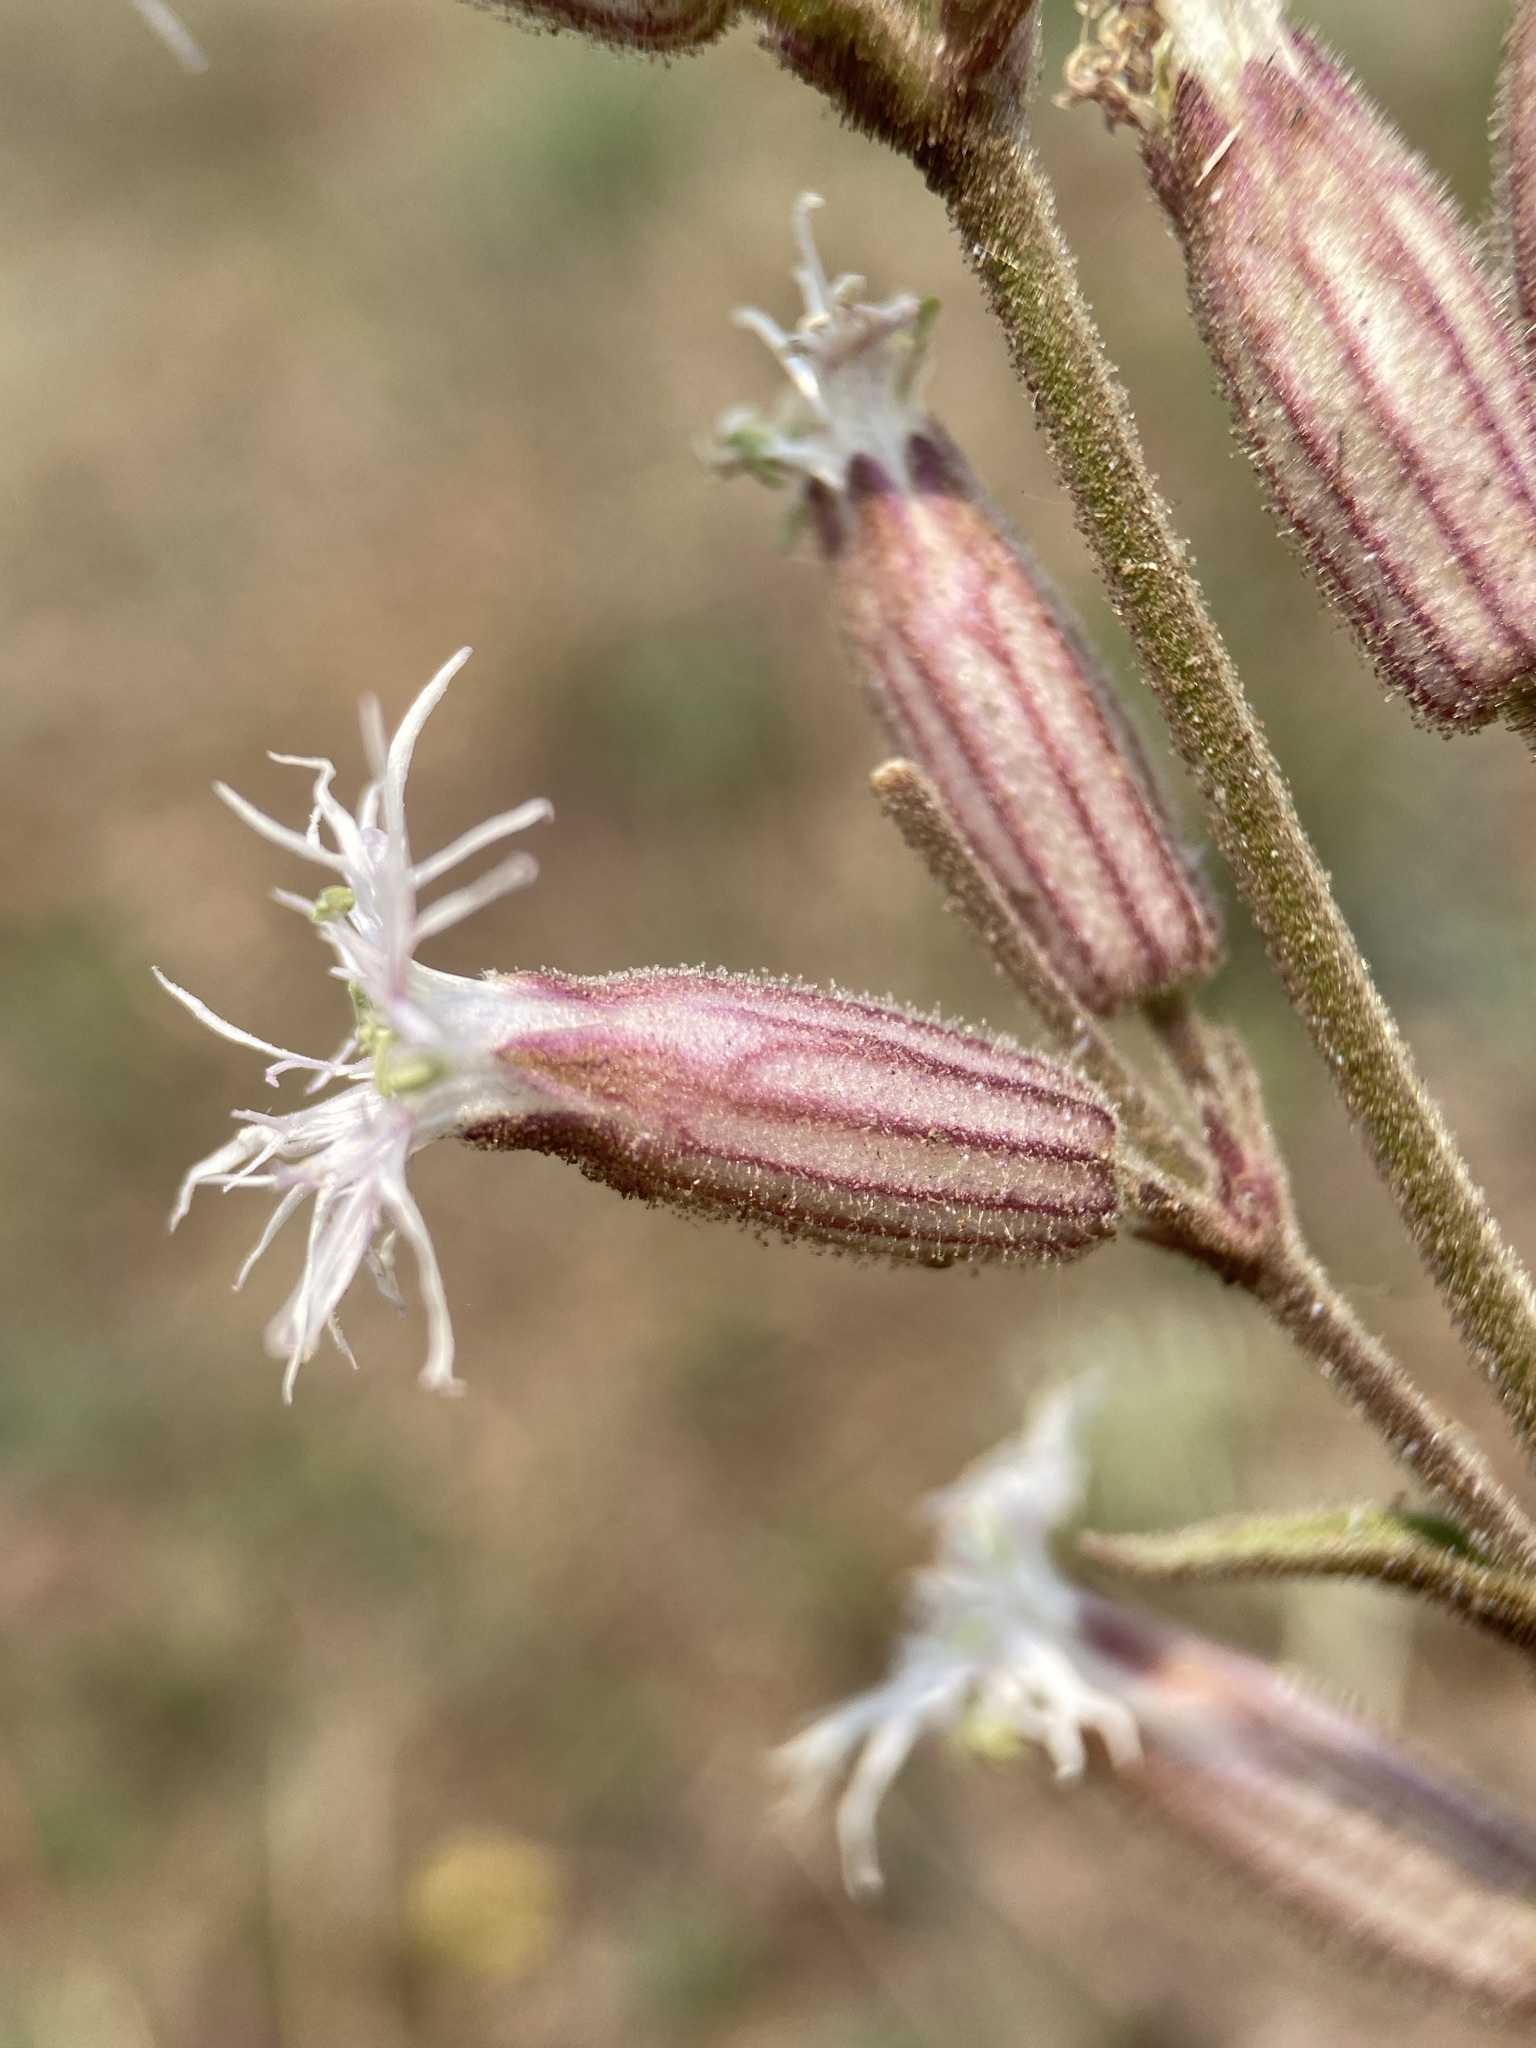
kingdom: Plantae
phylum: Tracheophyta
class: Magnoliopsida
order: Caryophyllales
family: Caryophyllaceae
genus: Silene
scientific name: Silene oregana
